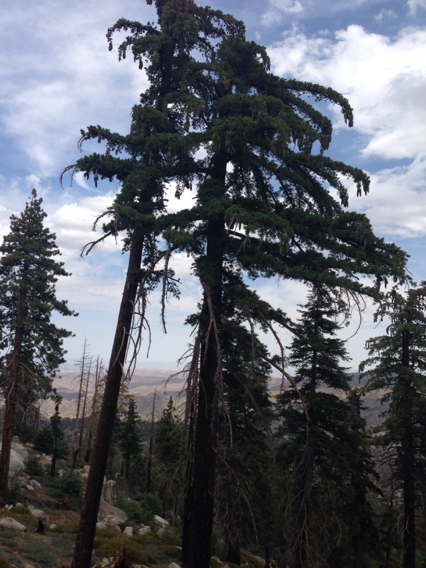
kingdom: Plantae
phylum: Tracheophyta
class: Pinopsida
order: Pinales
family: Pinaceae
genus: Pinus
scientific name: Pinus lambertiana
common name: Sugar pine
